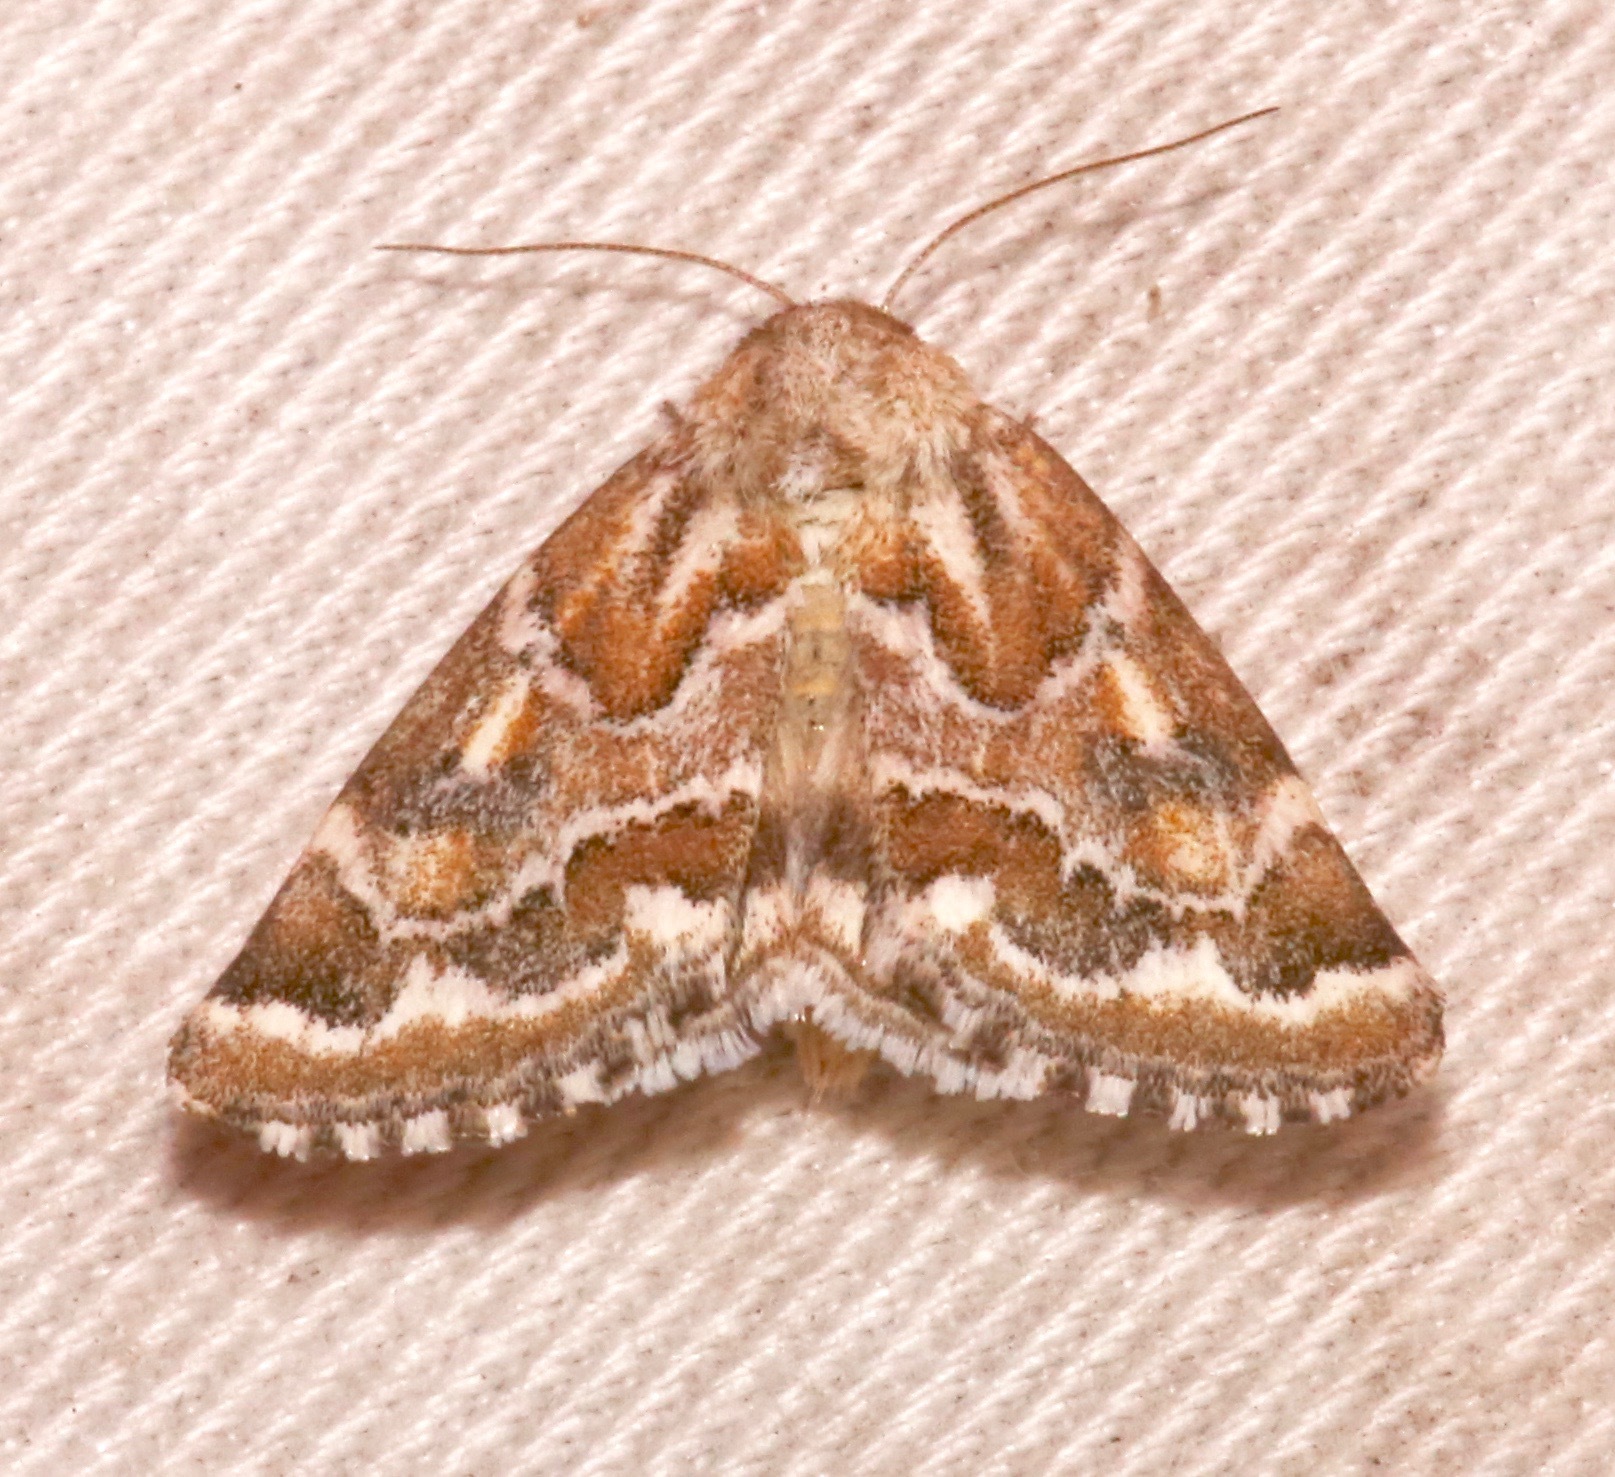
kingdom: Animalia
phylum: Arthropoda
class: Insecta
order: Lepidoptera
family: Noctuidae
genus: Schinia
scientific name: Schinia acutilinea
